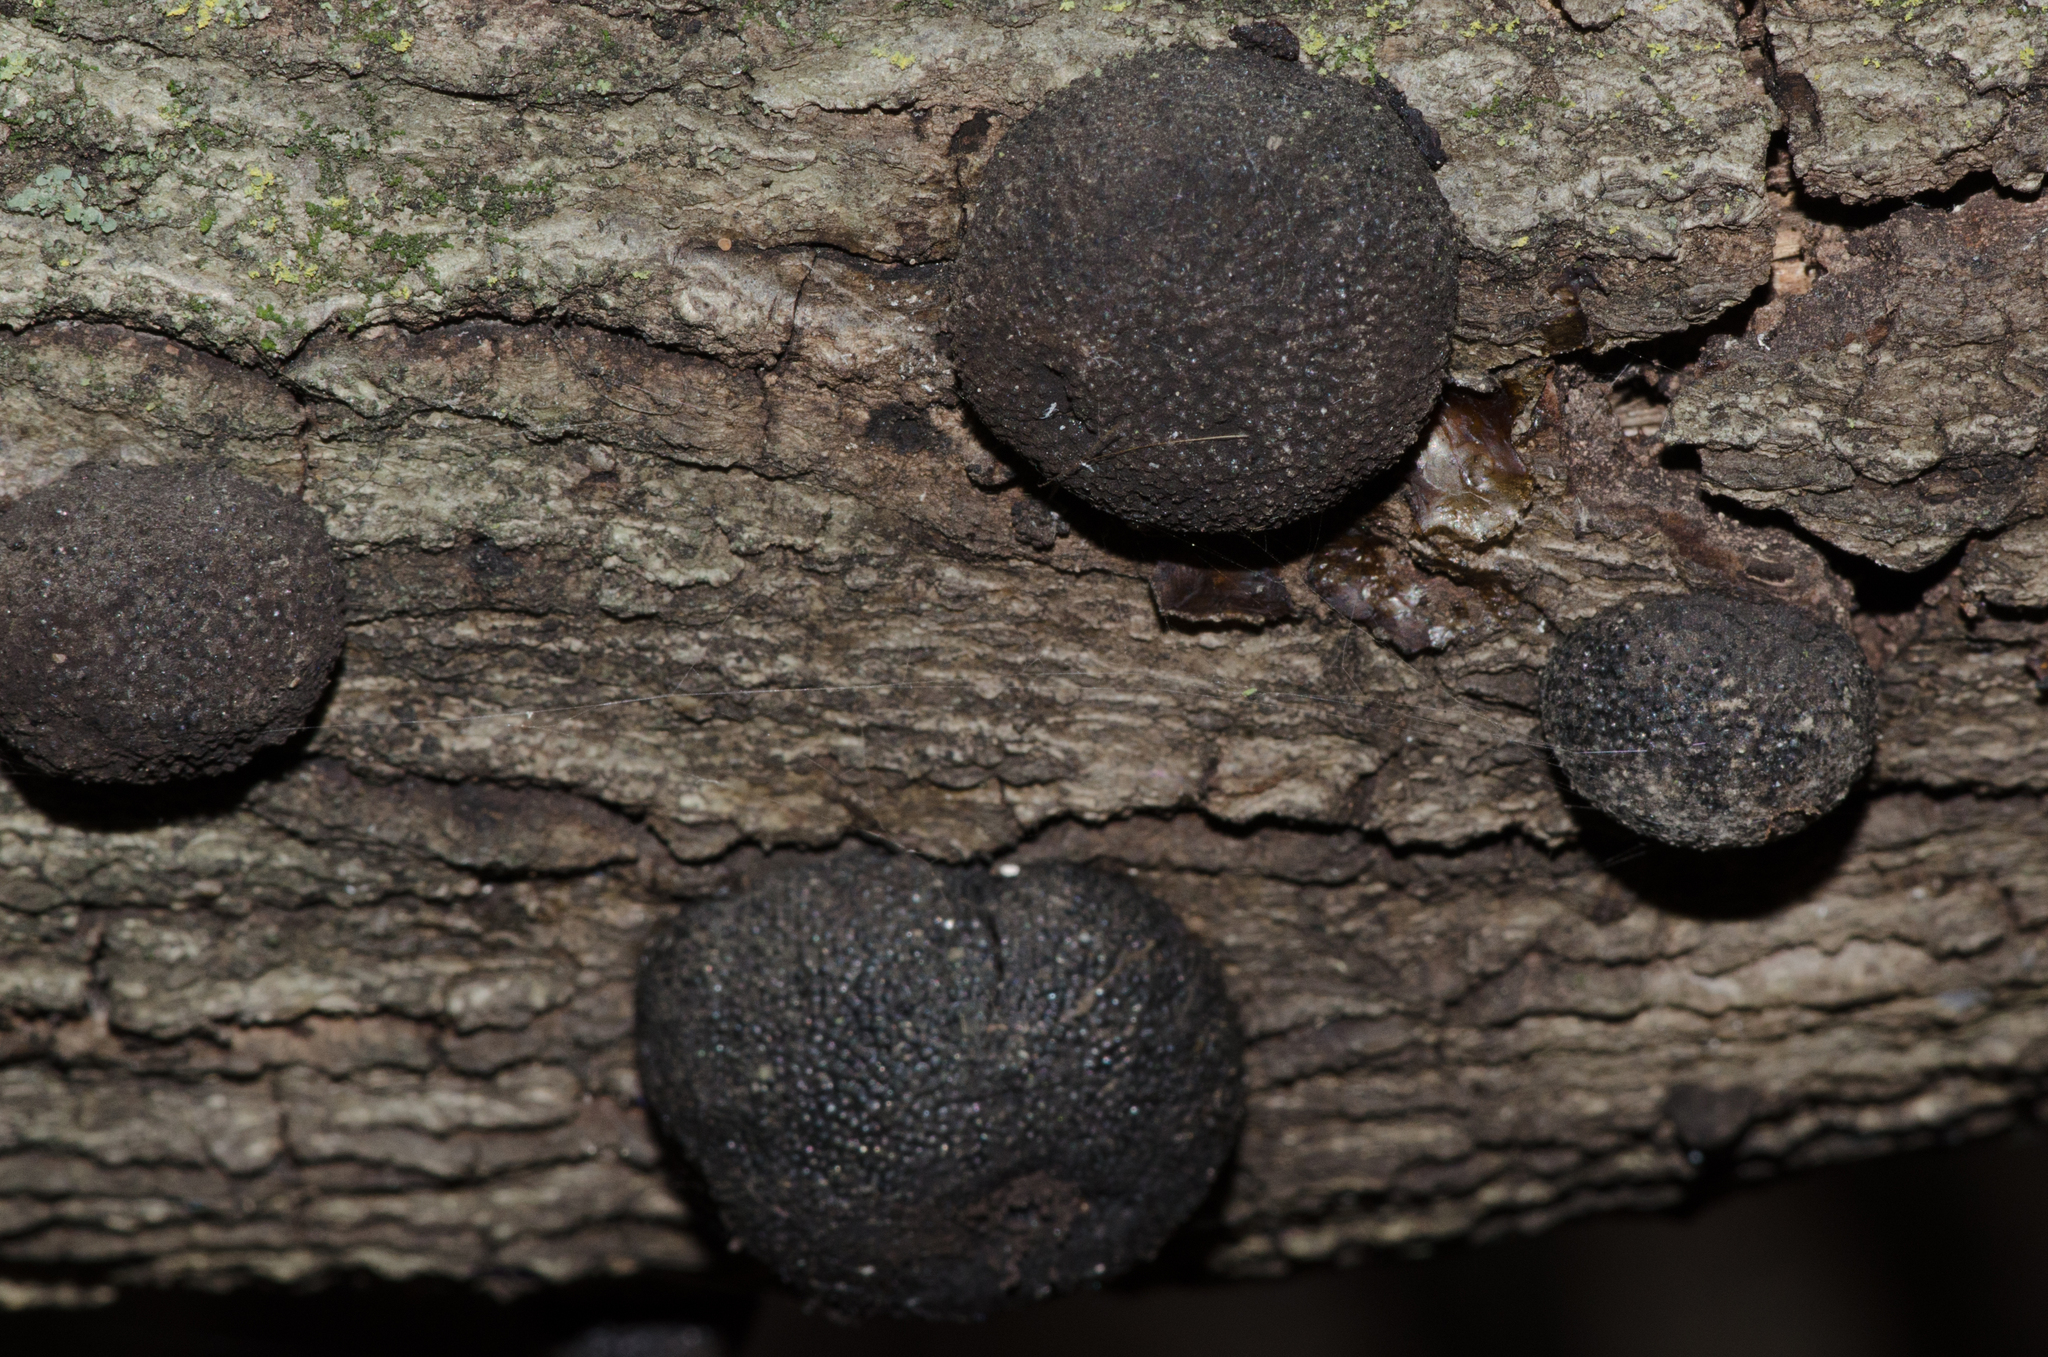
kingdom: Fungi
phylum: Ascomycota
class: Sordariomycetes
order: Xylariales
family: Hypoxylaceae
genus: Annulohypoxylon
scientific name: Annulohypoxylon thouarsianum
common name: Cramp balls
